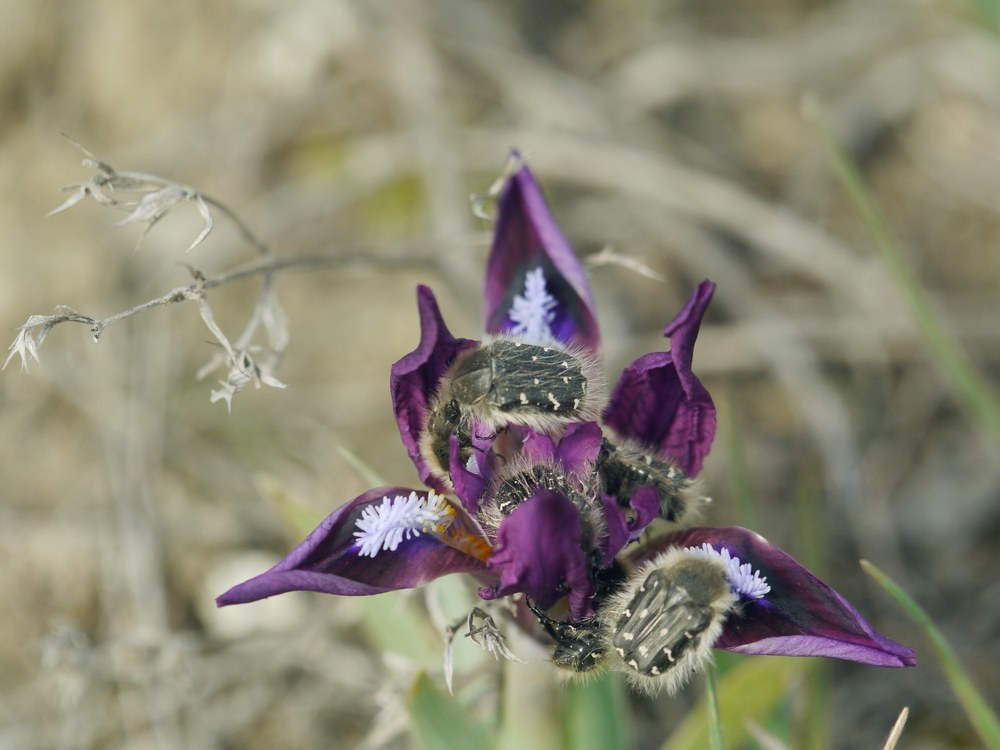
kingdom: Animalia
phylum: Arthropoda
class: Insecta
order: Coleoptera
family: Scarabaeidae
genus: Tropinota
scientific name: Tropinota hirta
